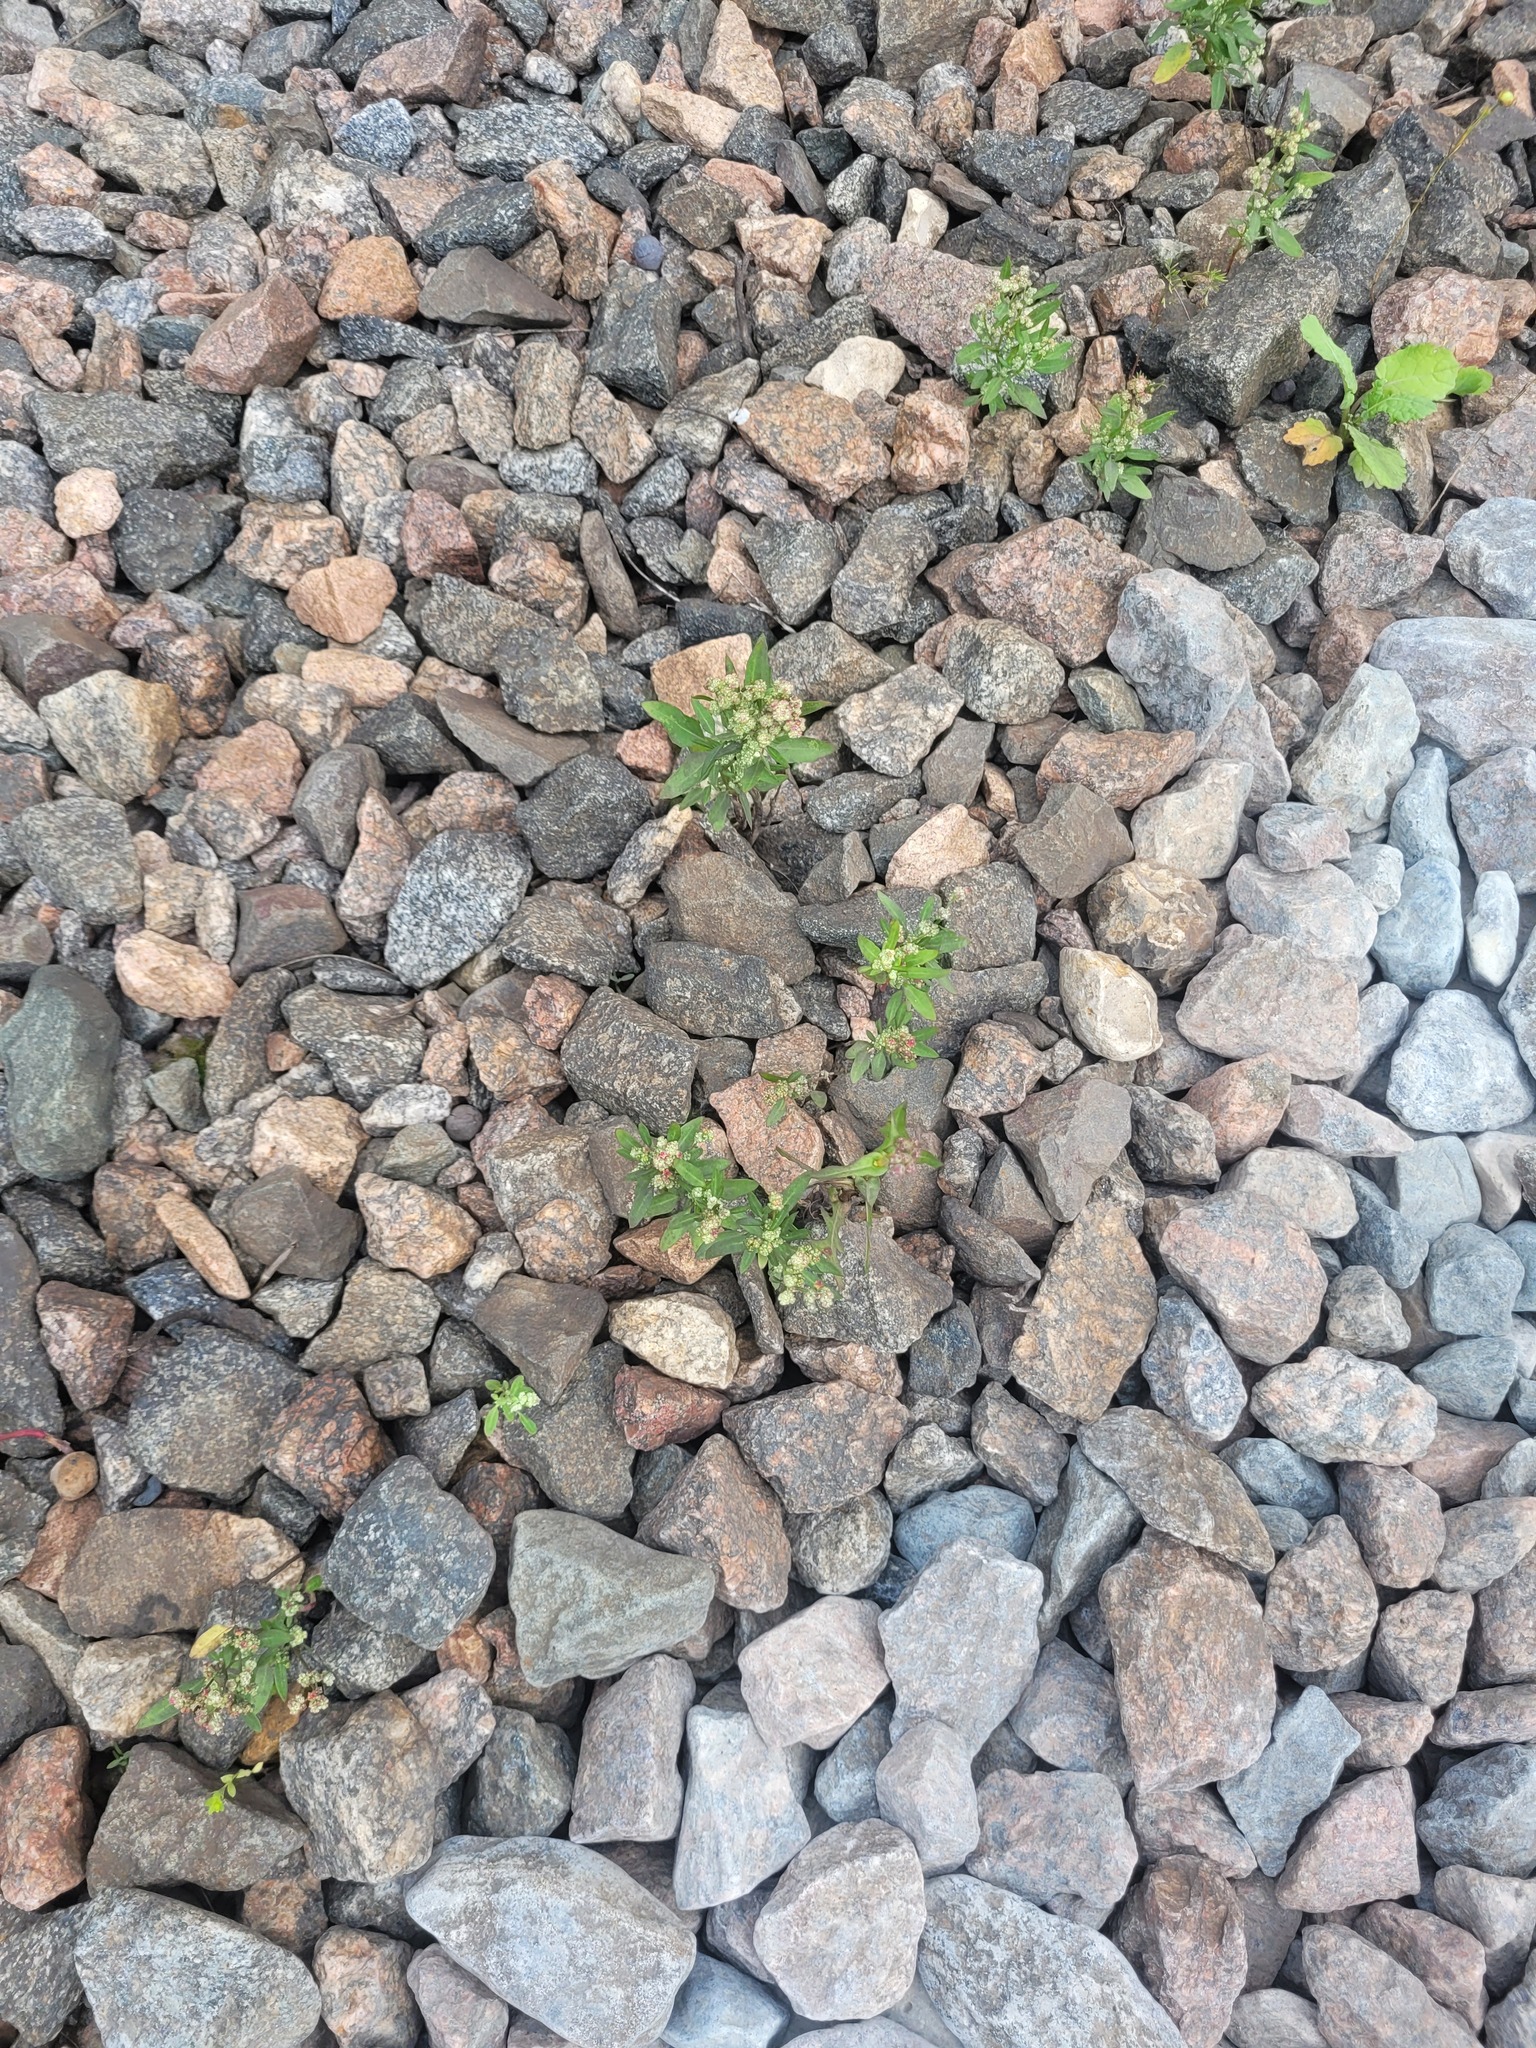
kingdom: Plantae
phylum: Tracheophyta
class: Magnoliopsida
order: Caryophyllales
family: Amaranthaceae
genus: Chenopodium
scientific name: Chenopodium betaceum
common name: Striped goosefoot
